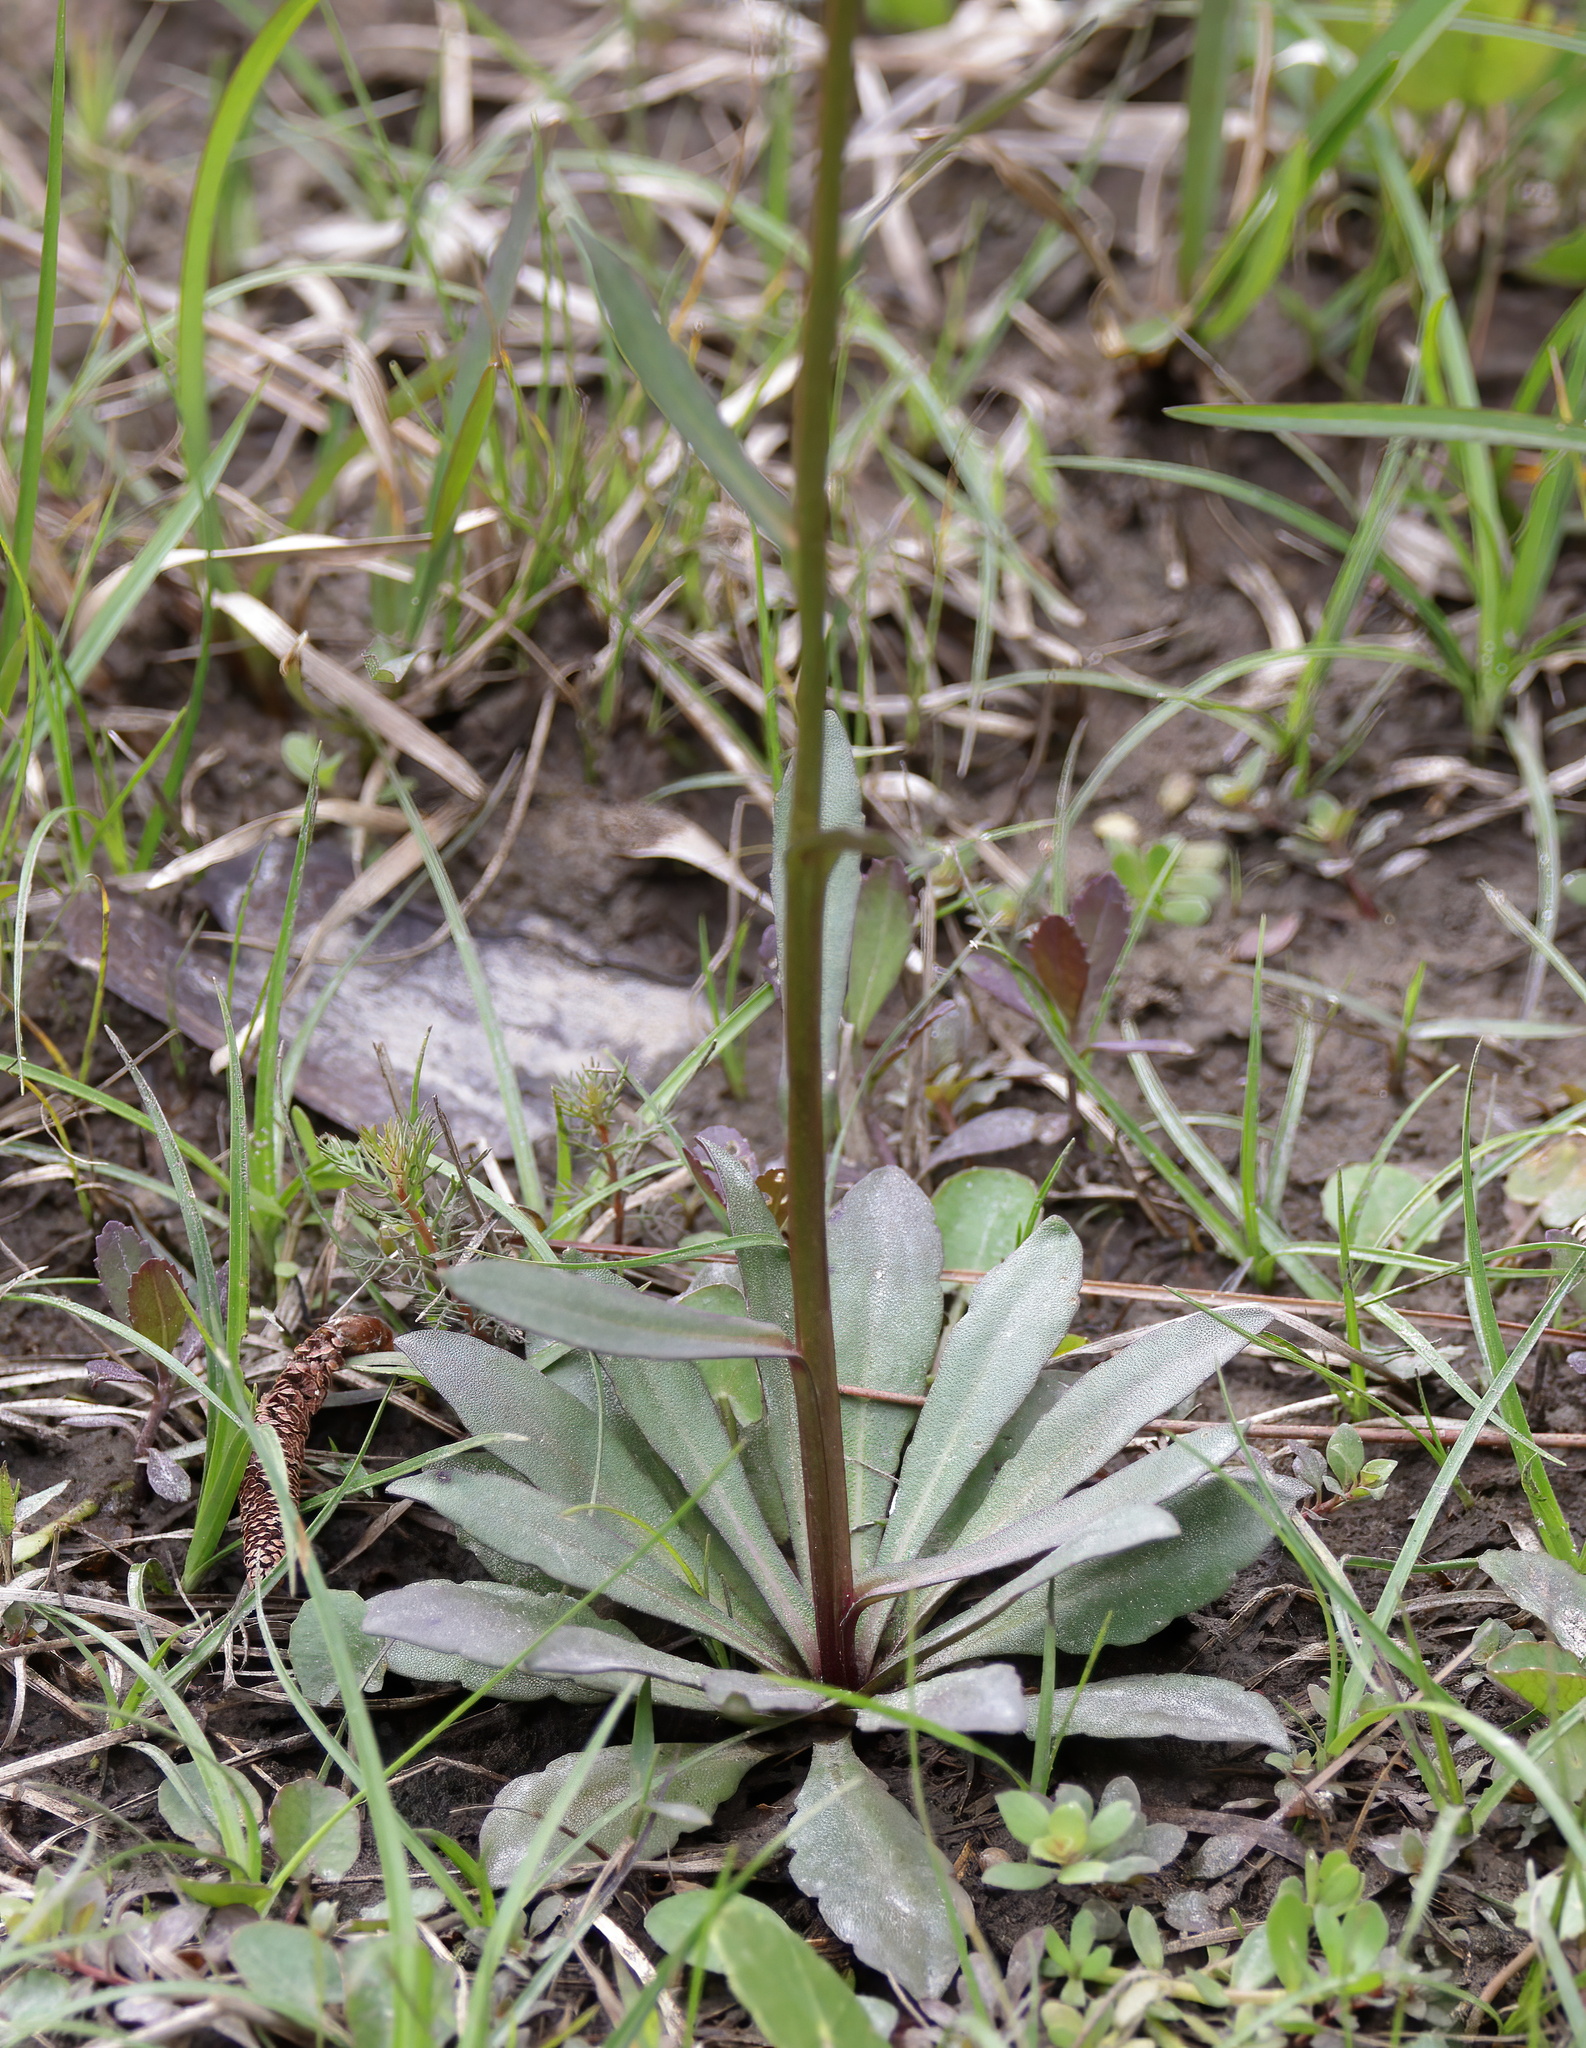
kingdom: Plantae
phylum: Tracheophyta
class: Magnoliopsida
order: Asterales
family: Asteraceae
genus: Helenium
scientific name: Helenium brevifolium
